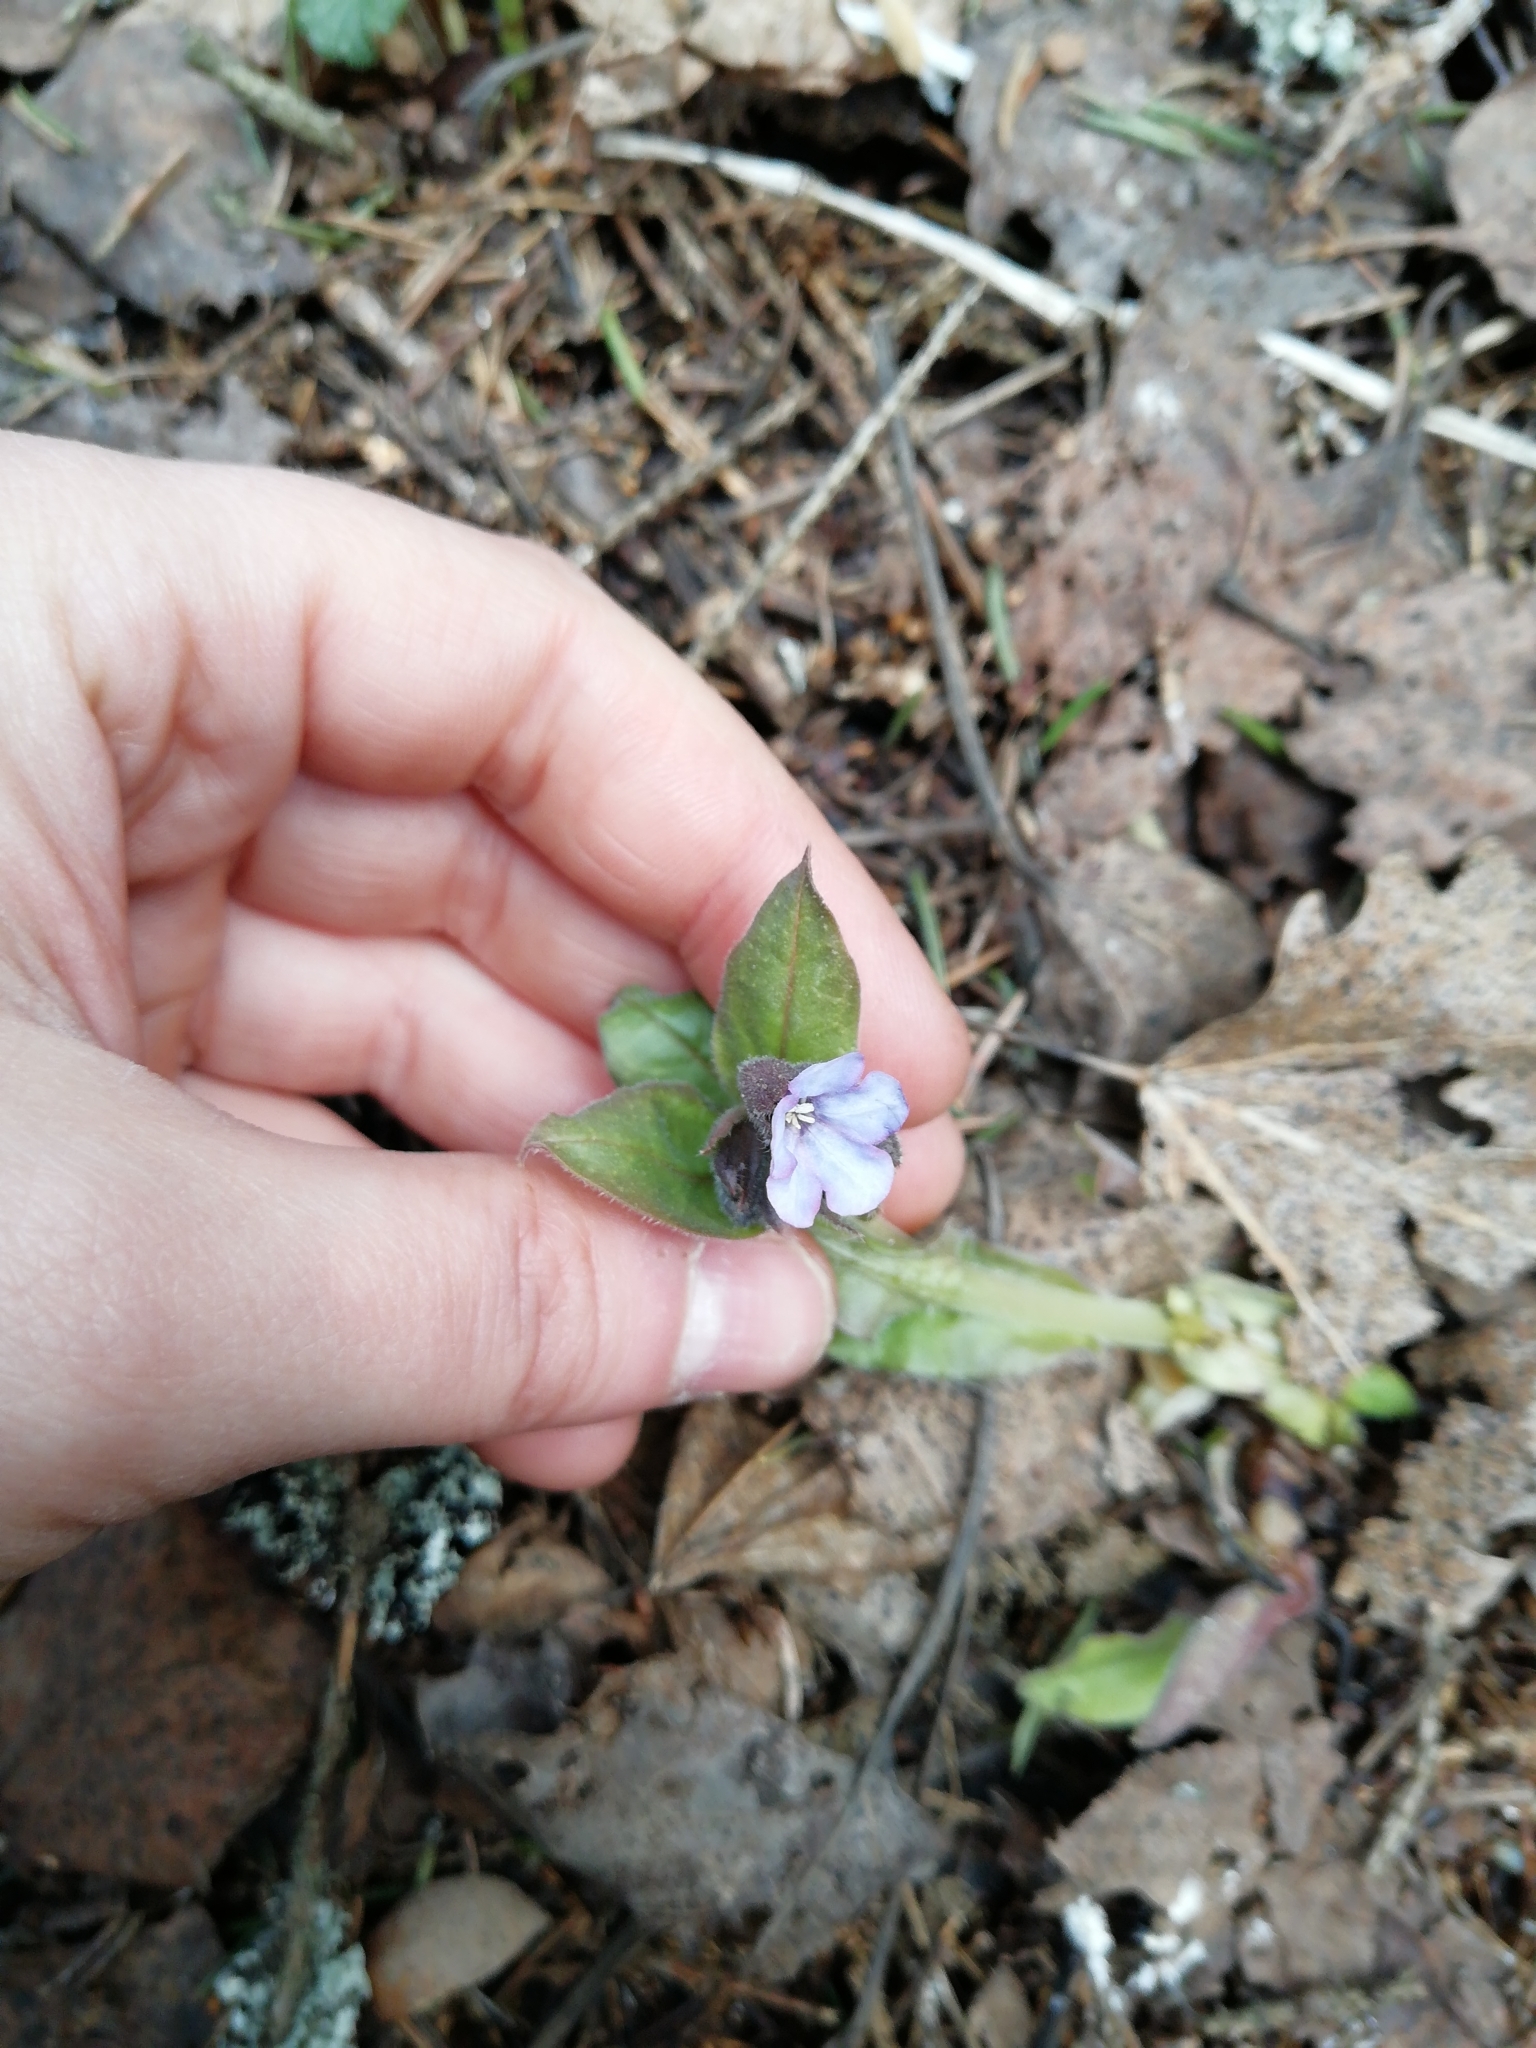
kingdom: Plantae
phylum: Tracheophyta
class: Magnoliopsida
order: Boraginales
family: Boraginaceae
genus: Pulmonaria
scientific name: Pulmonaria obscura
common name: Suffolk lungwort
